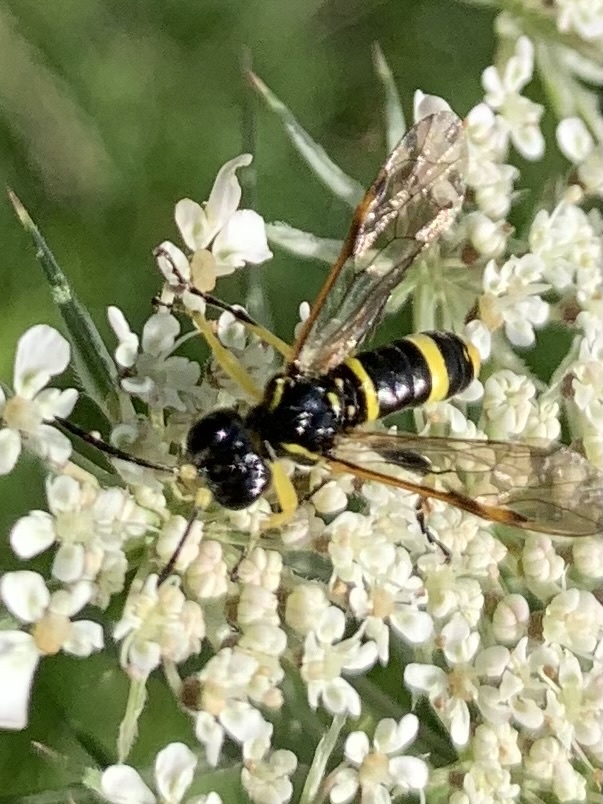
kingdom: Animalia
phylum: Arthropoda
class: Insecta
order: Hymenoptera
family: Tenthredinidae
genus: Tenthredo
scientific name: Tenthredo amoena
